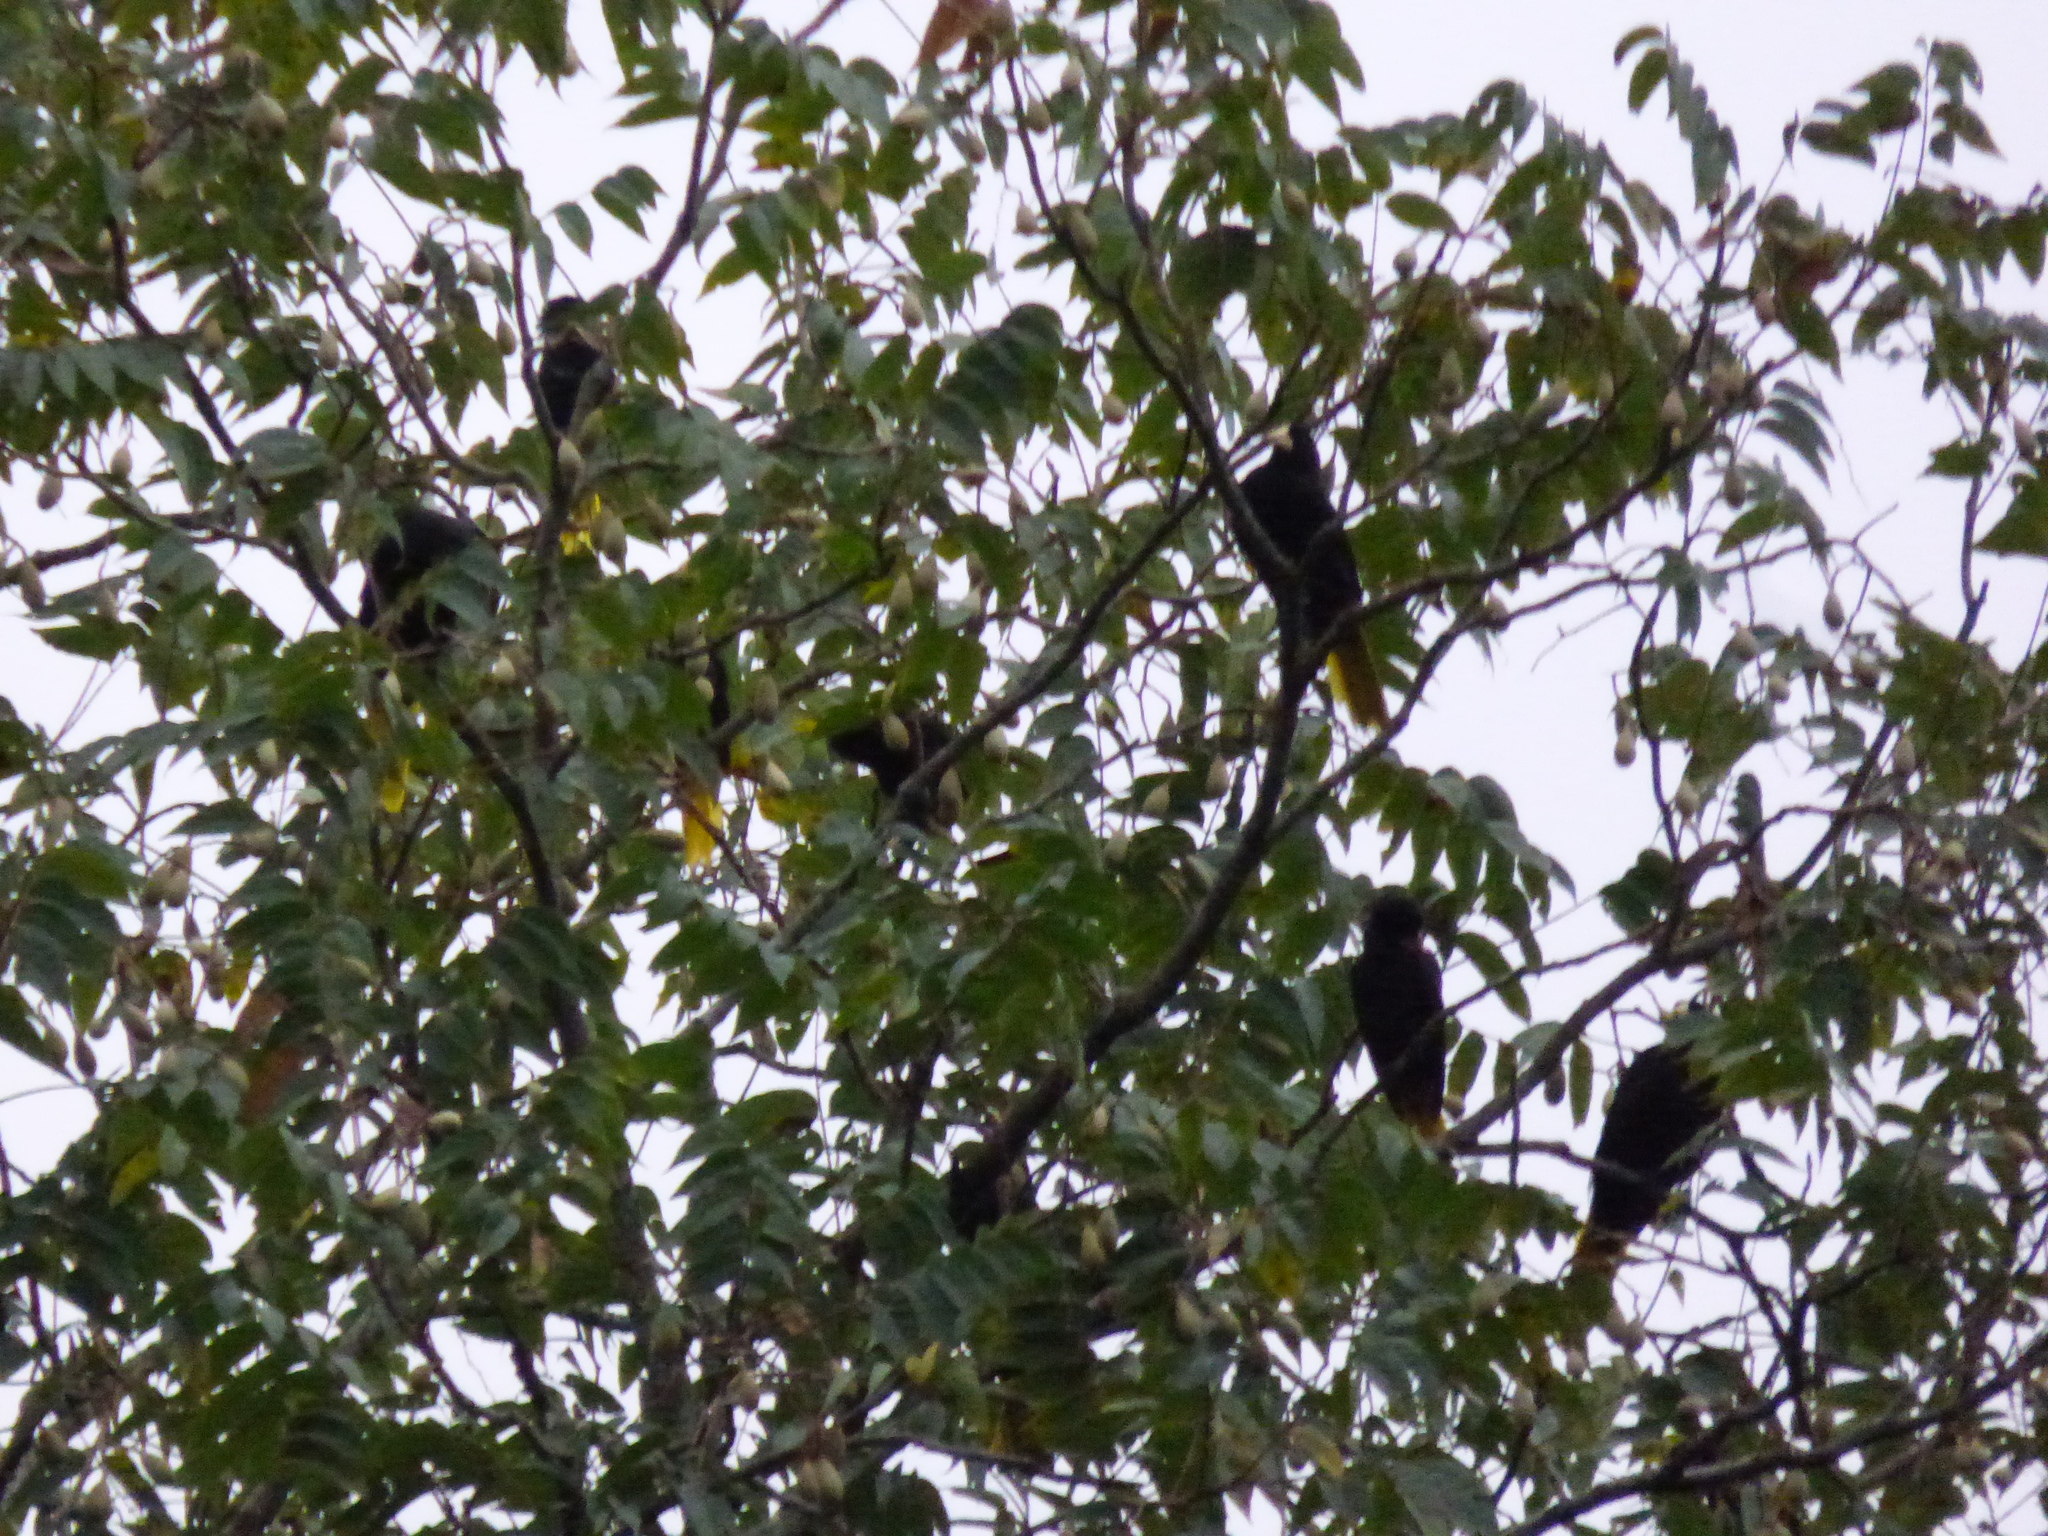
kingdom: Animalia
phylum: Chordata
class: Aves
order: Passeriformes
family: Icteridae
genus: Psarocolius
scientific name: Psarocolius decumanus
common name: Crested oropendola
